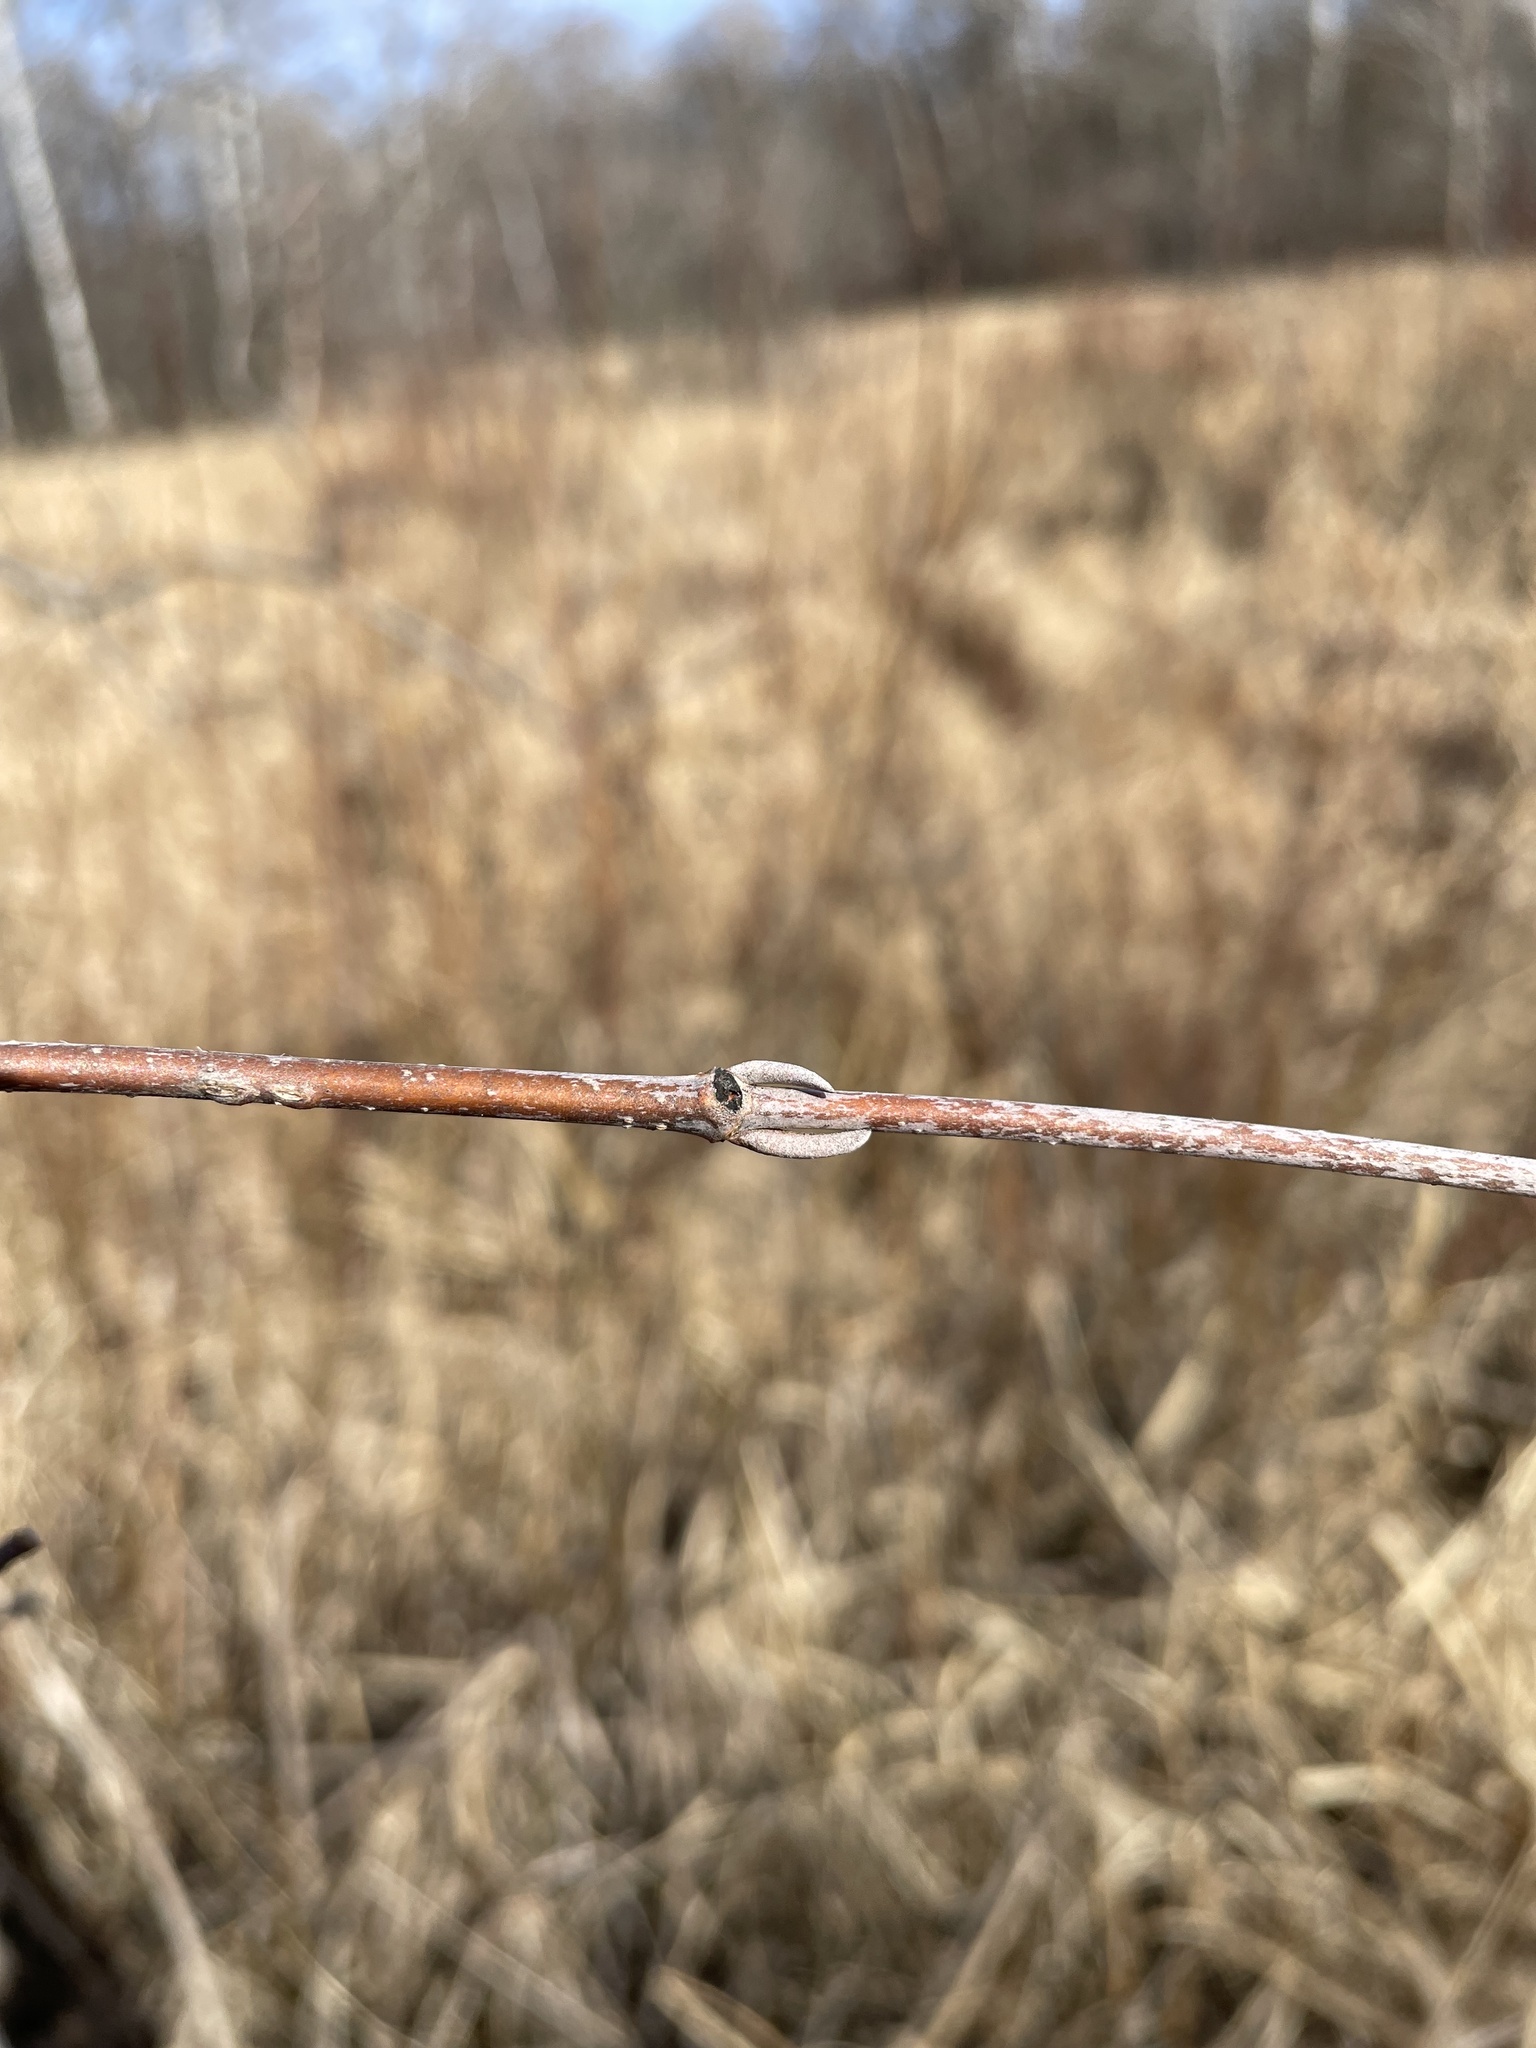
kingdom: Plantae
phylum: Tracheophyta
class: Magnoliopsida
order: Dipsacales
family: Viburnaceae
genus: Viburnum
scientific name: Viburnum lentago
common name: Black haw
